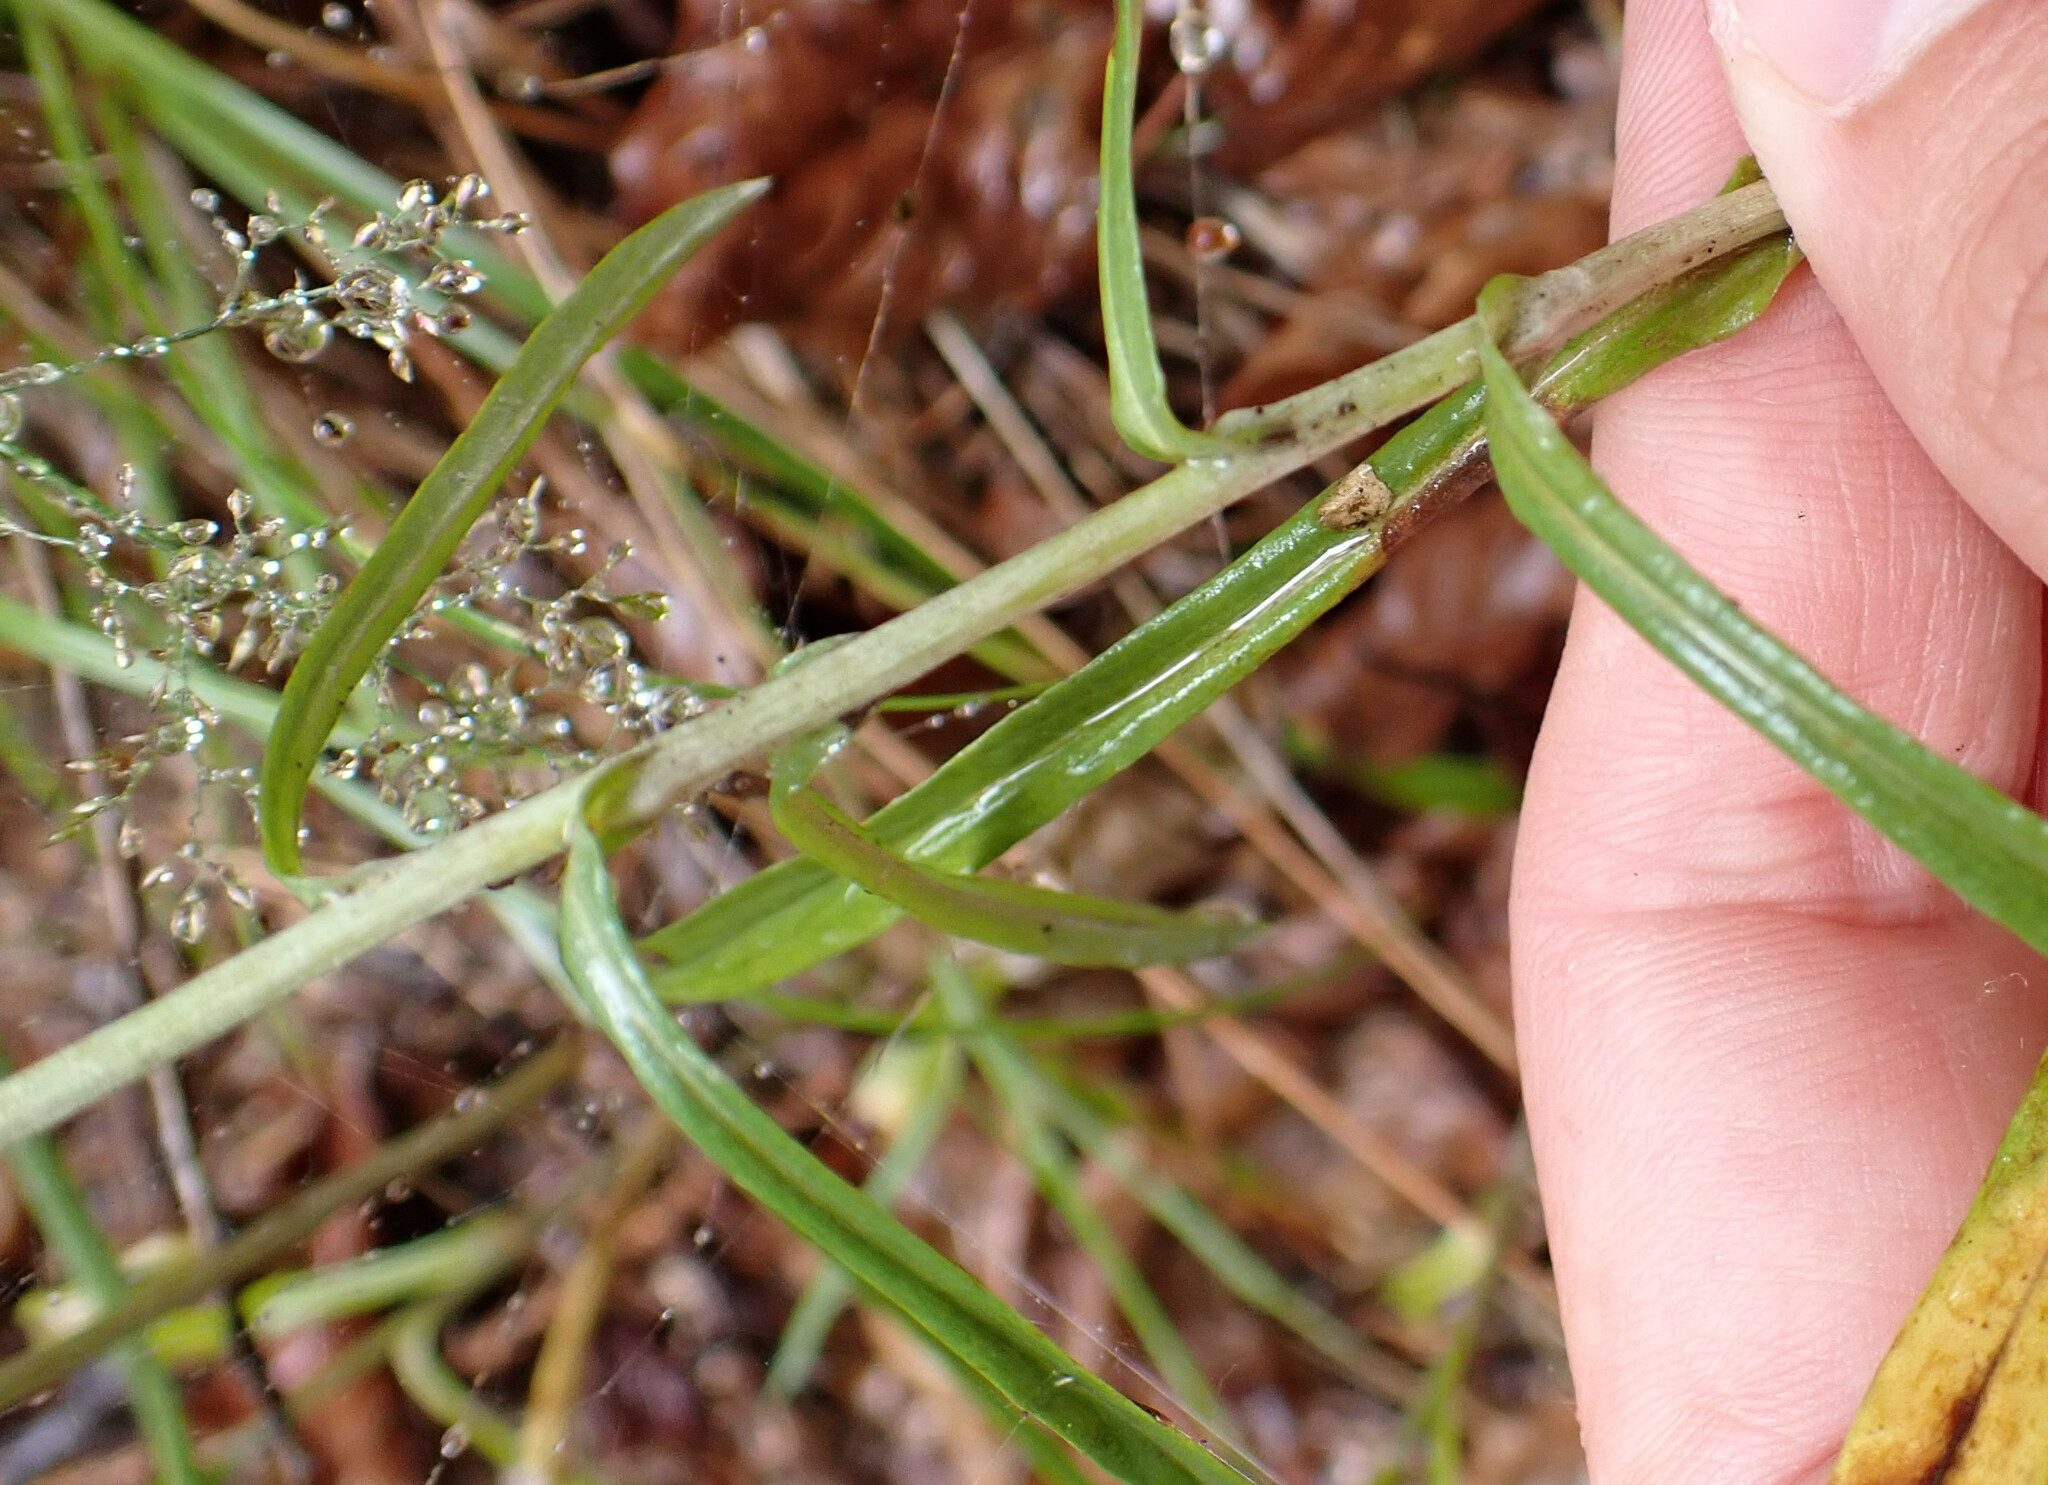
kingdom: Plantae
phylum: Tracheophyta
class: Magnoliopsida
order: Asterales
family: Asteraceae
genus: Omalotheca
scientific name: Omalotheca sylvatica
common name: Heath cudweed
